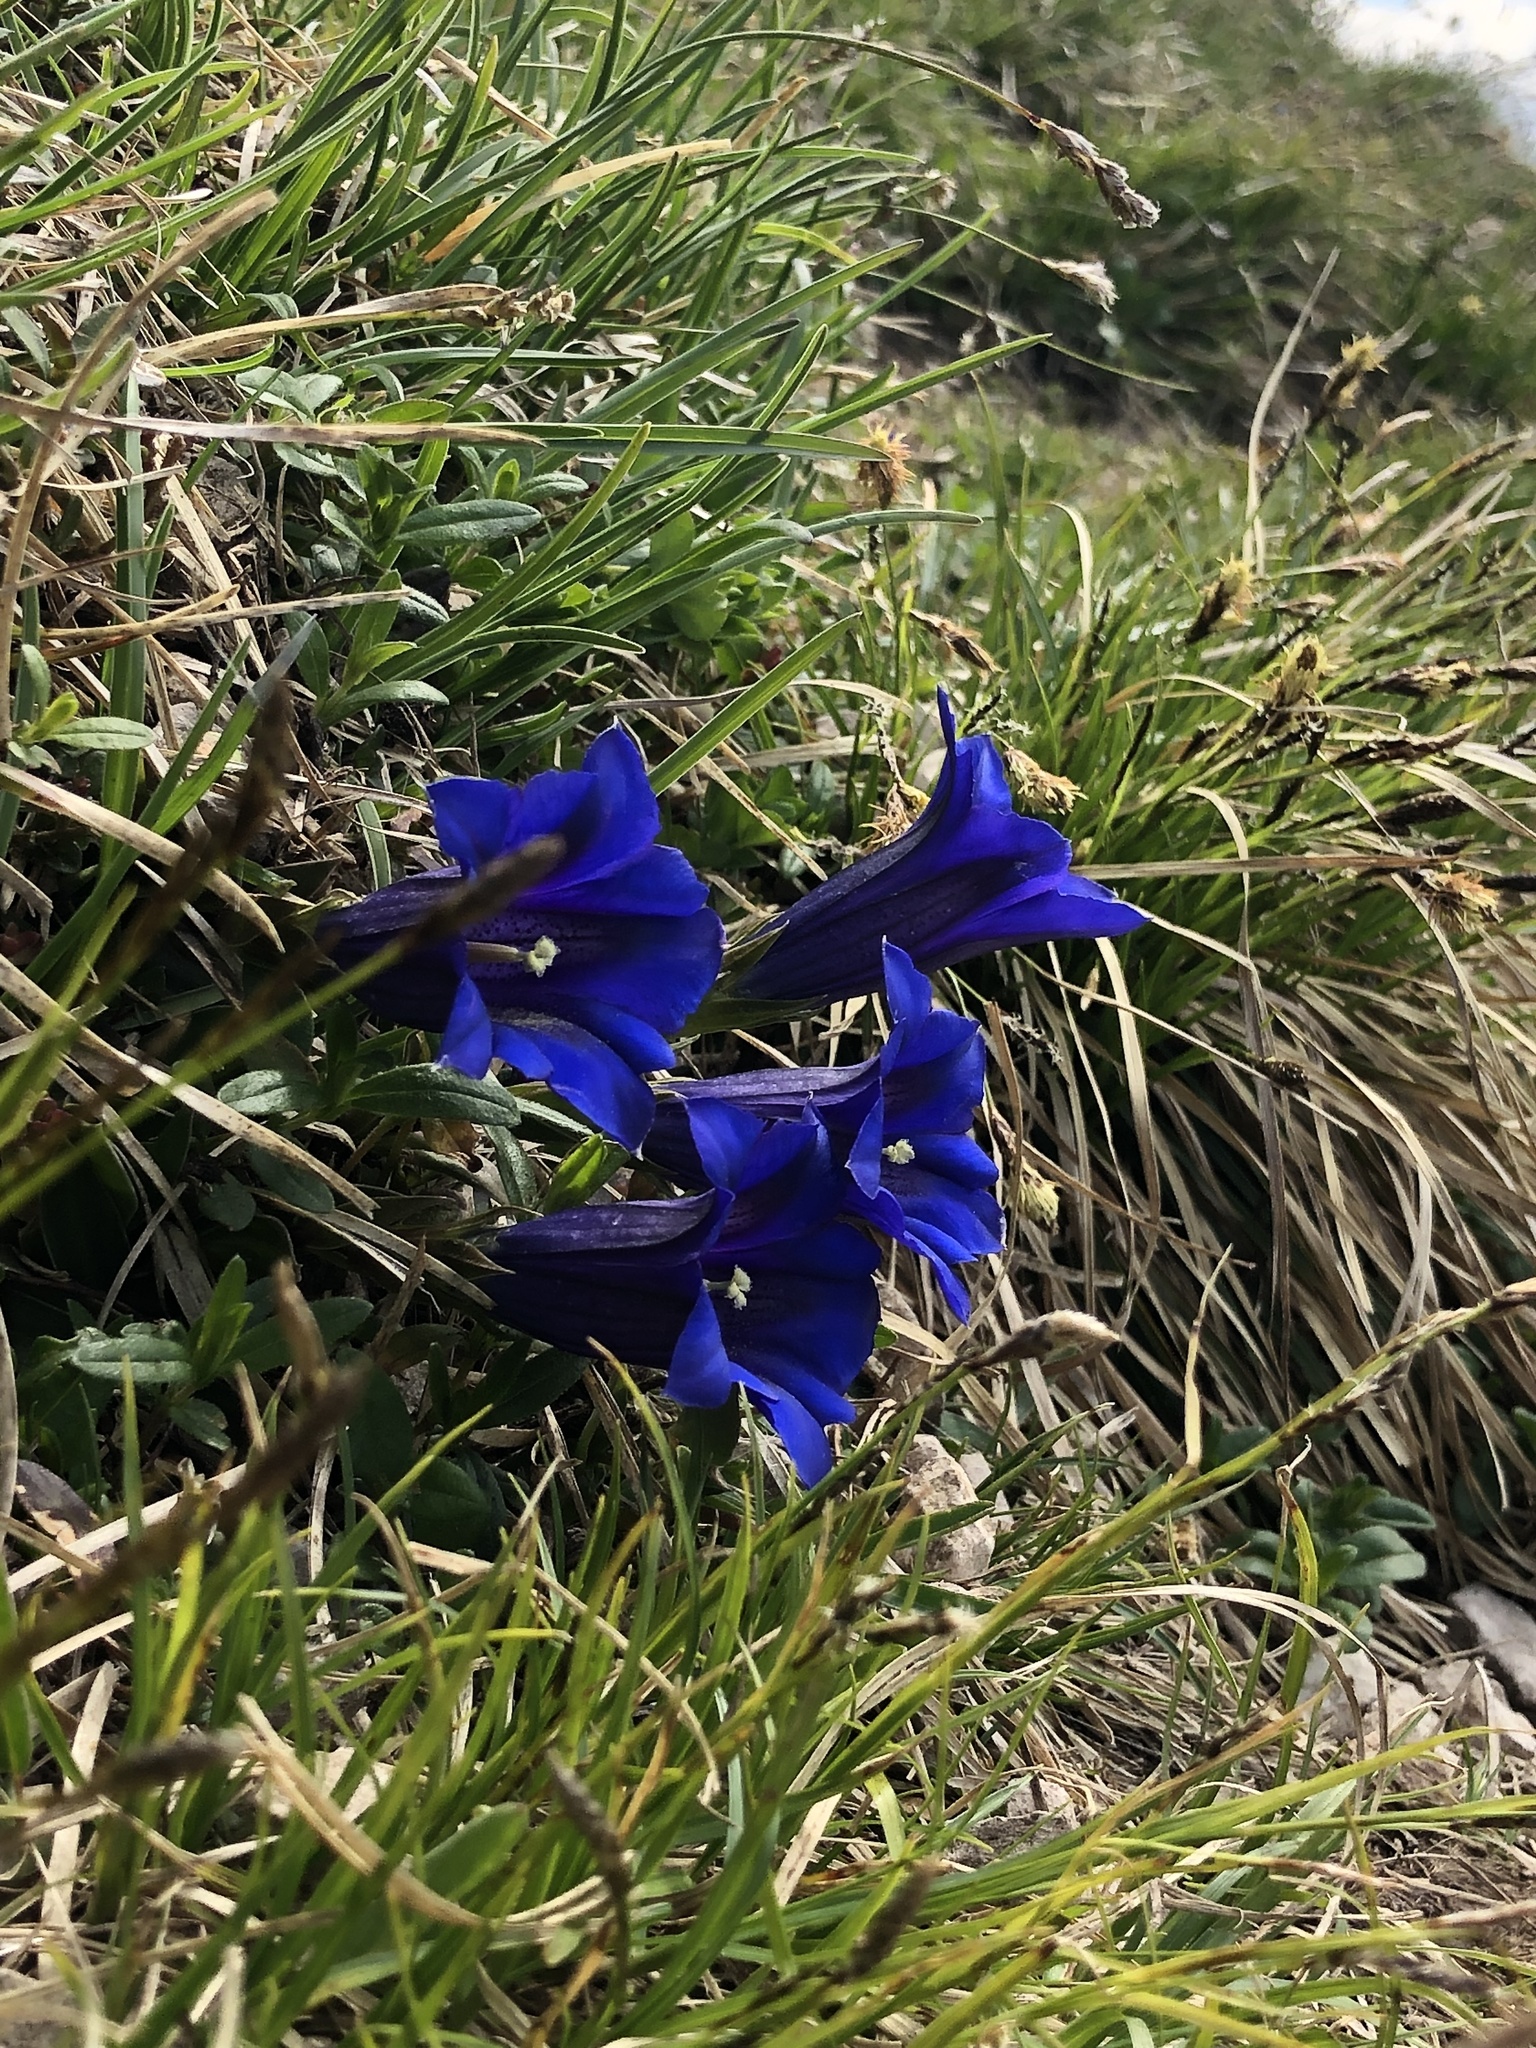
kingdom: Plantae
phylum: Tracheophyta
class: Magnoliopsida
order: Gentianales
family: Gentianaceae
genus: Gentiana
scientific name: Gentiana clusii
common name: Trumpet gentian
